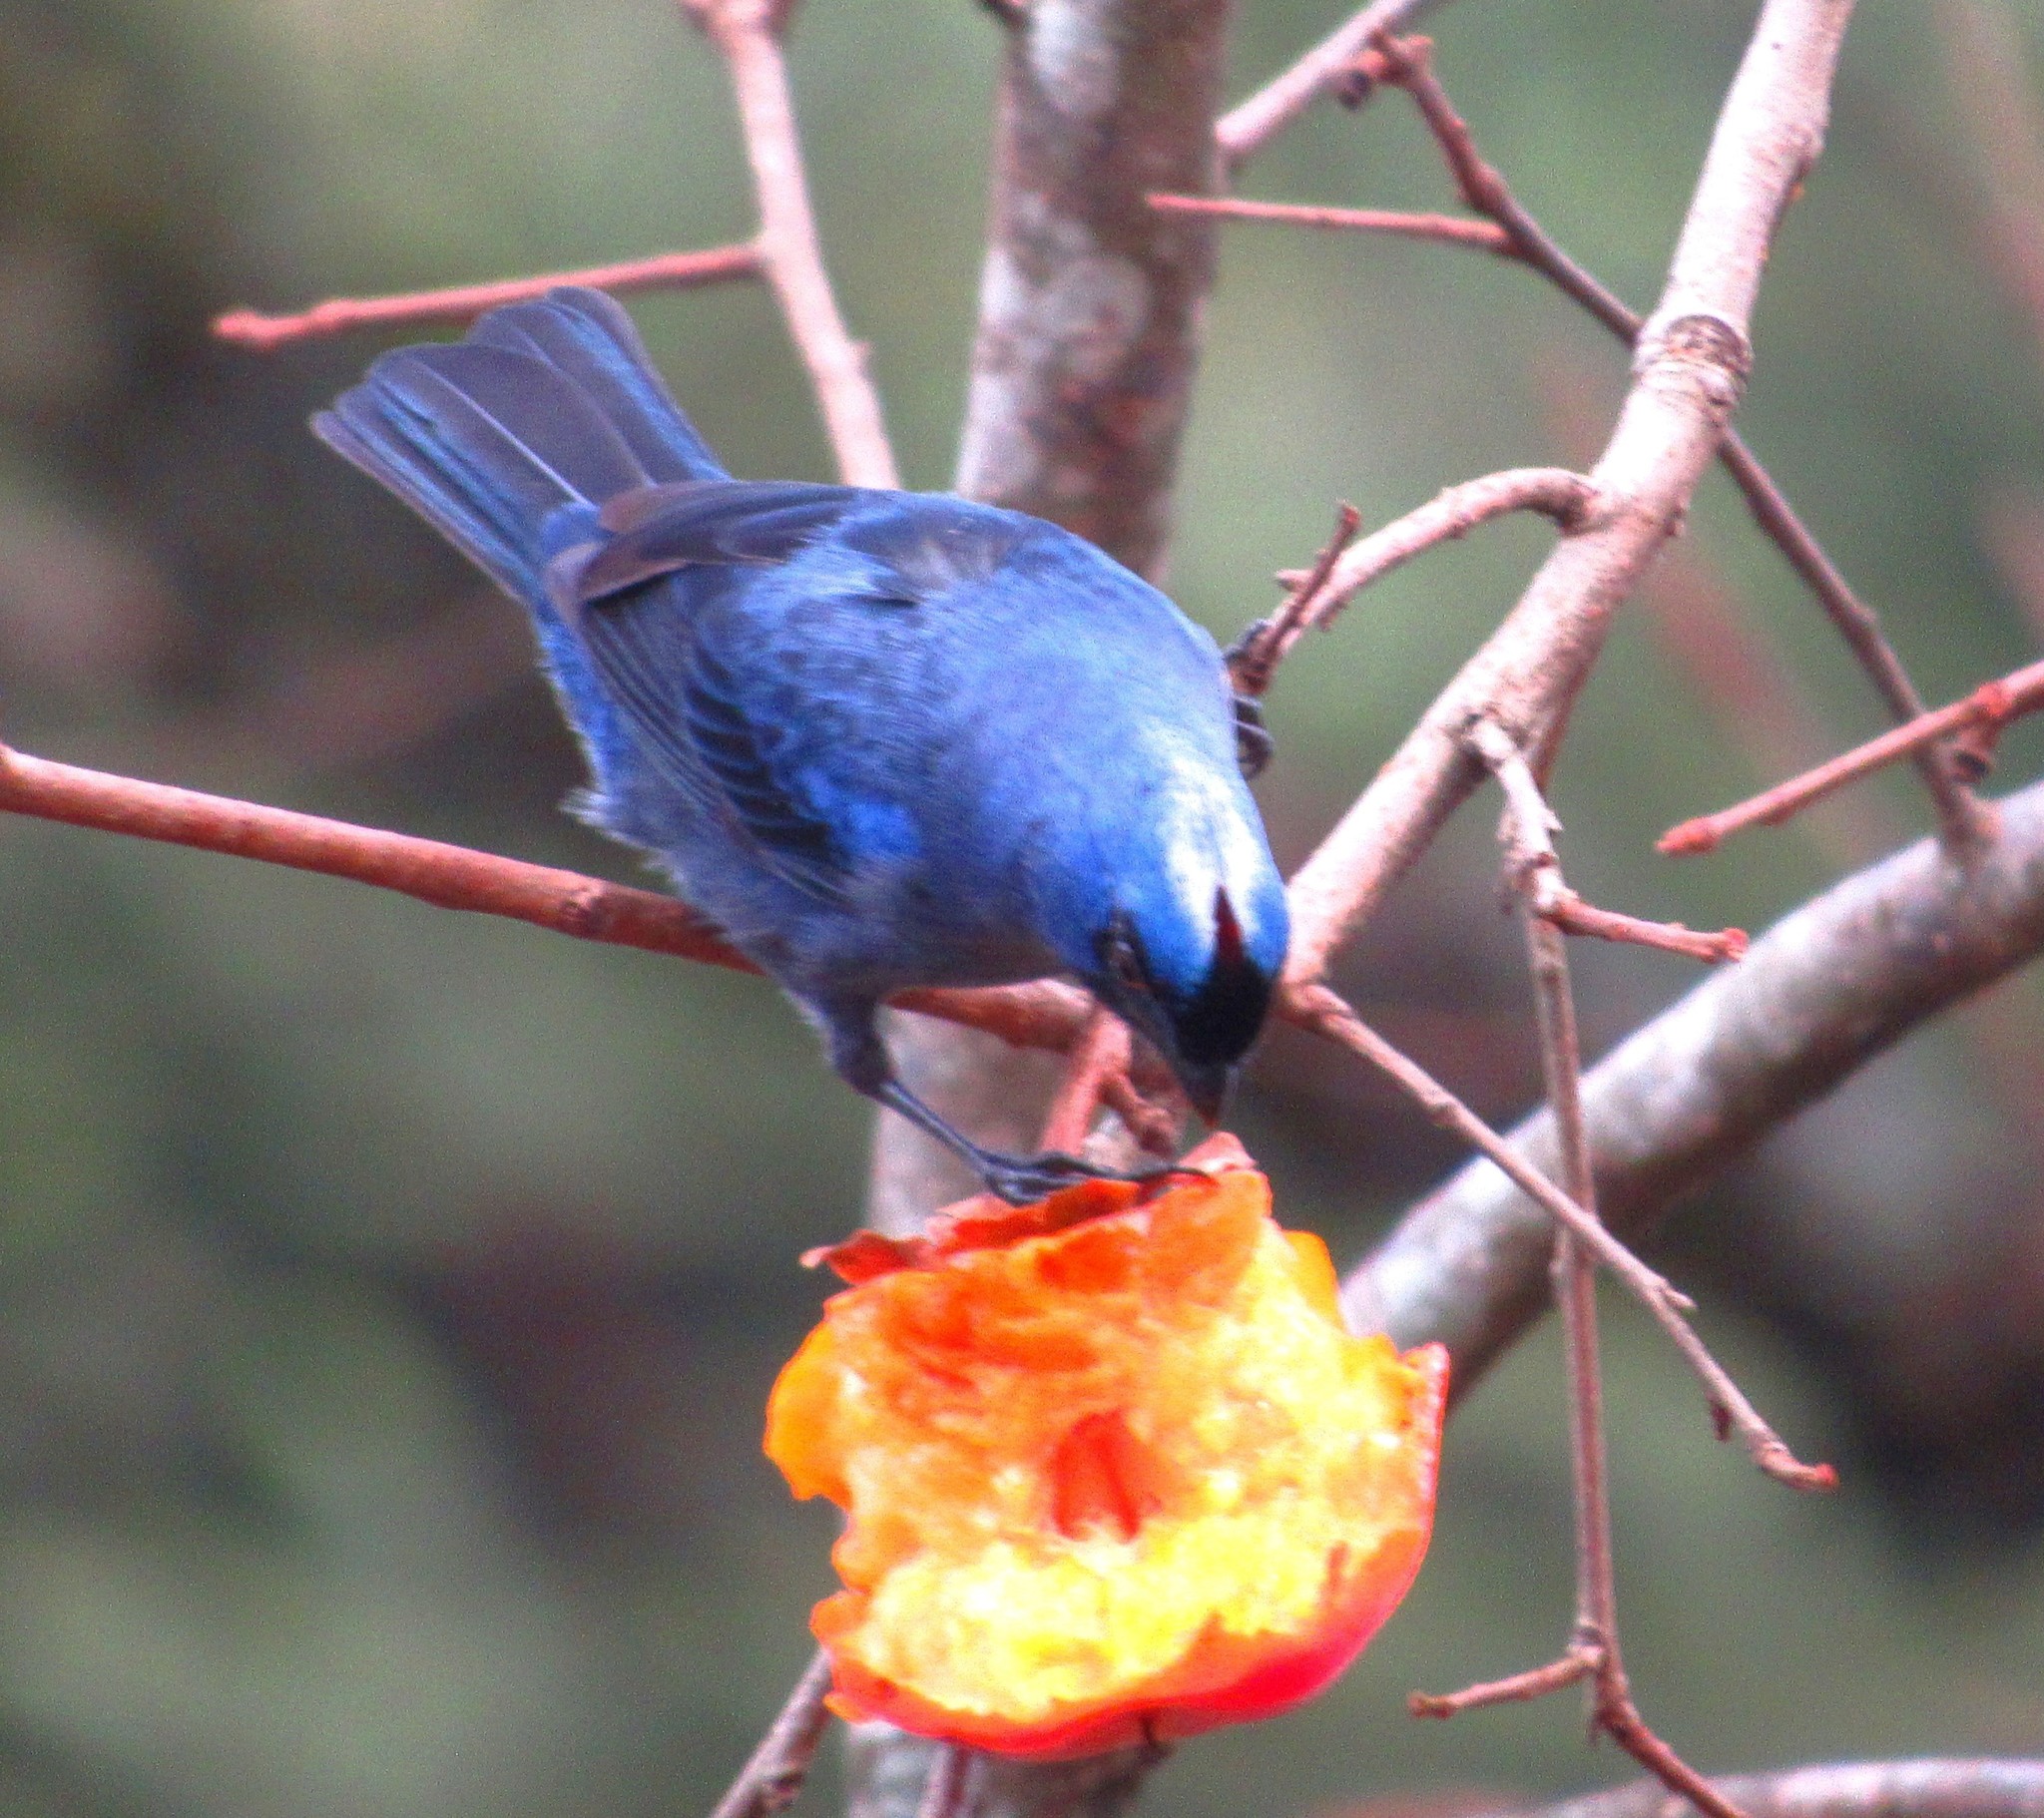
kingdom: Animalia
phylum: Chordata
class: Aves
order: Passeriformes
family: Thraupidae
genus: Stephanophorus
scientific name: Stephanophorus diadematus
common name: Diademed tanager
